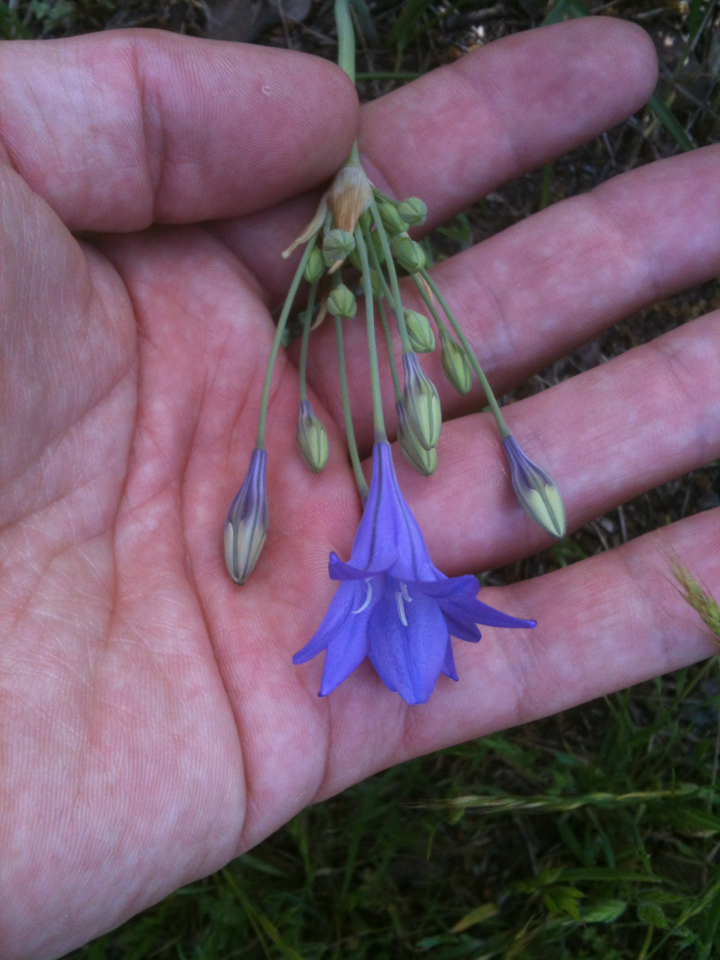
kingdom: Plantae
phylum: Tracheophyta
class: Liliopsida
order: Asparagales
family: Asparagaceae
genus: Triteleia
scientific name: Triteleia laxa
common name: Triplet-lily
